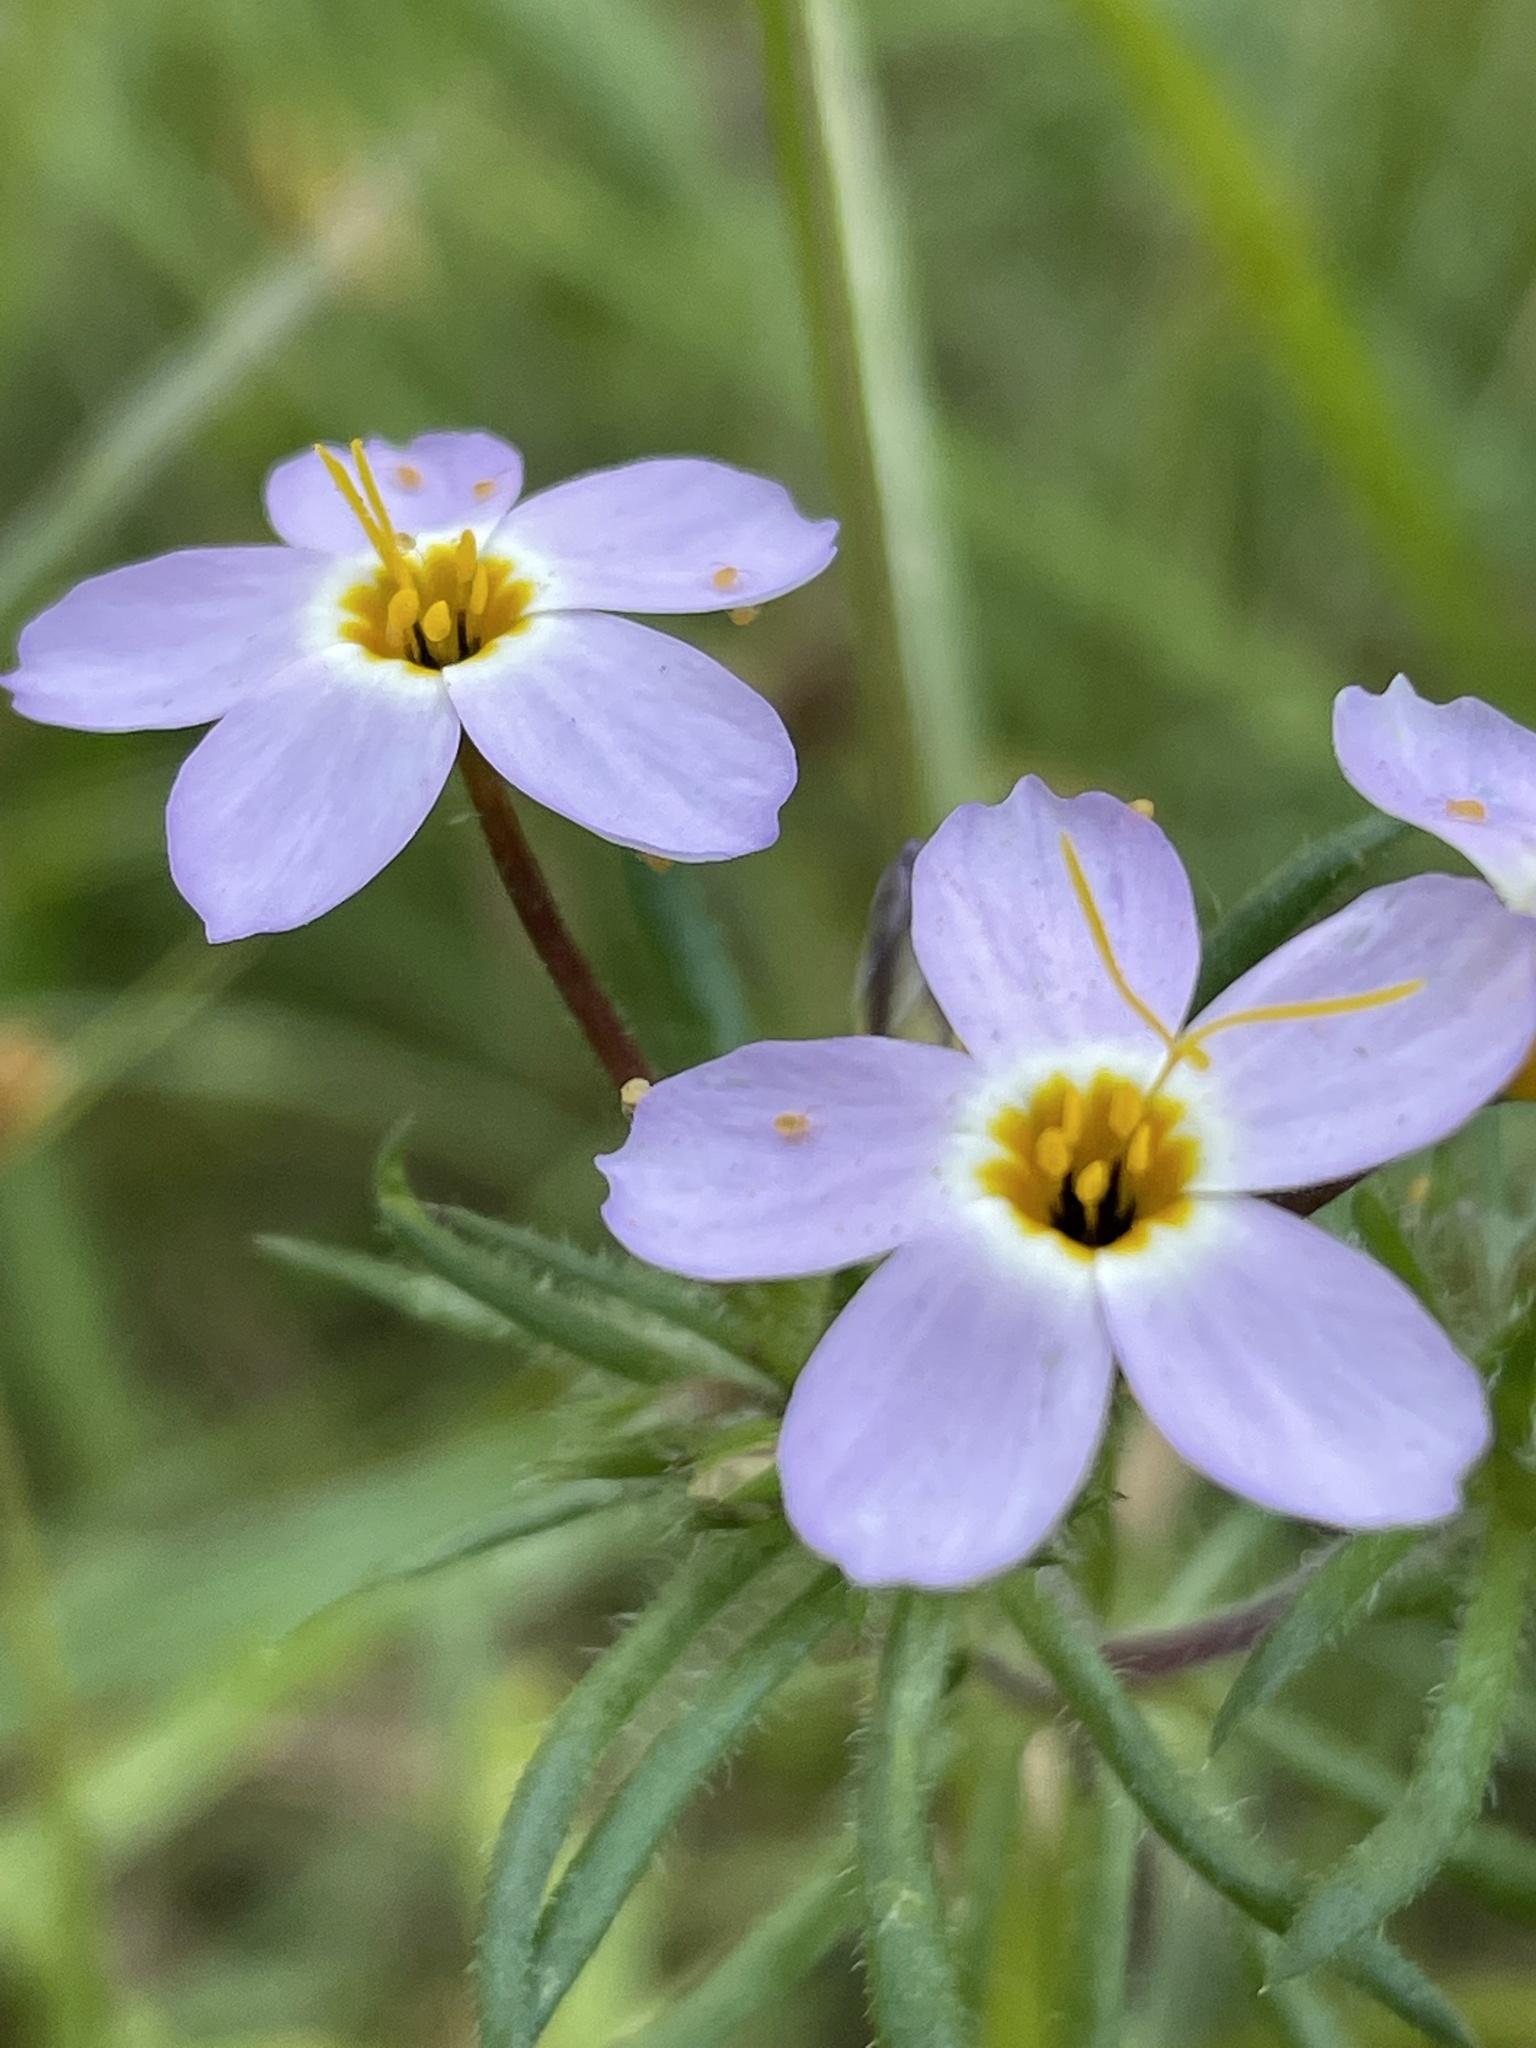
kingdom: Plantae
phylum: Tracheophyta
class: Magnoliopsida
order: Ericales
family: Polemoniaceae
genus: Leptosiphon
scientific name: Leptosiphon androsaceus
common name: False babystars
